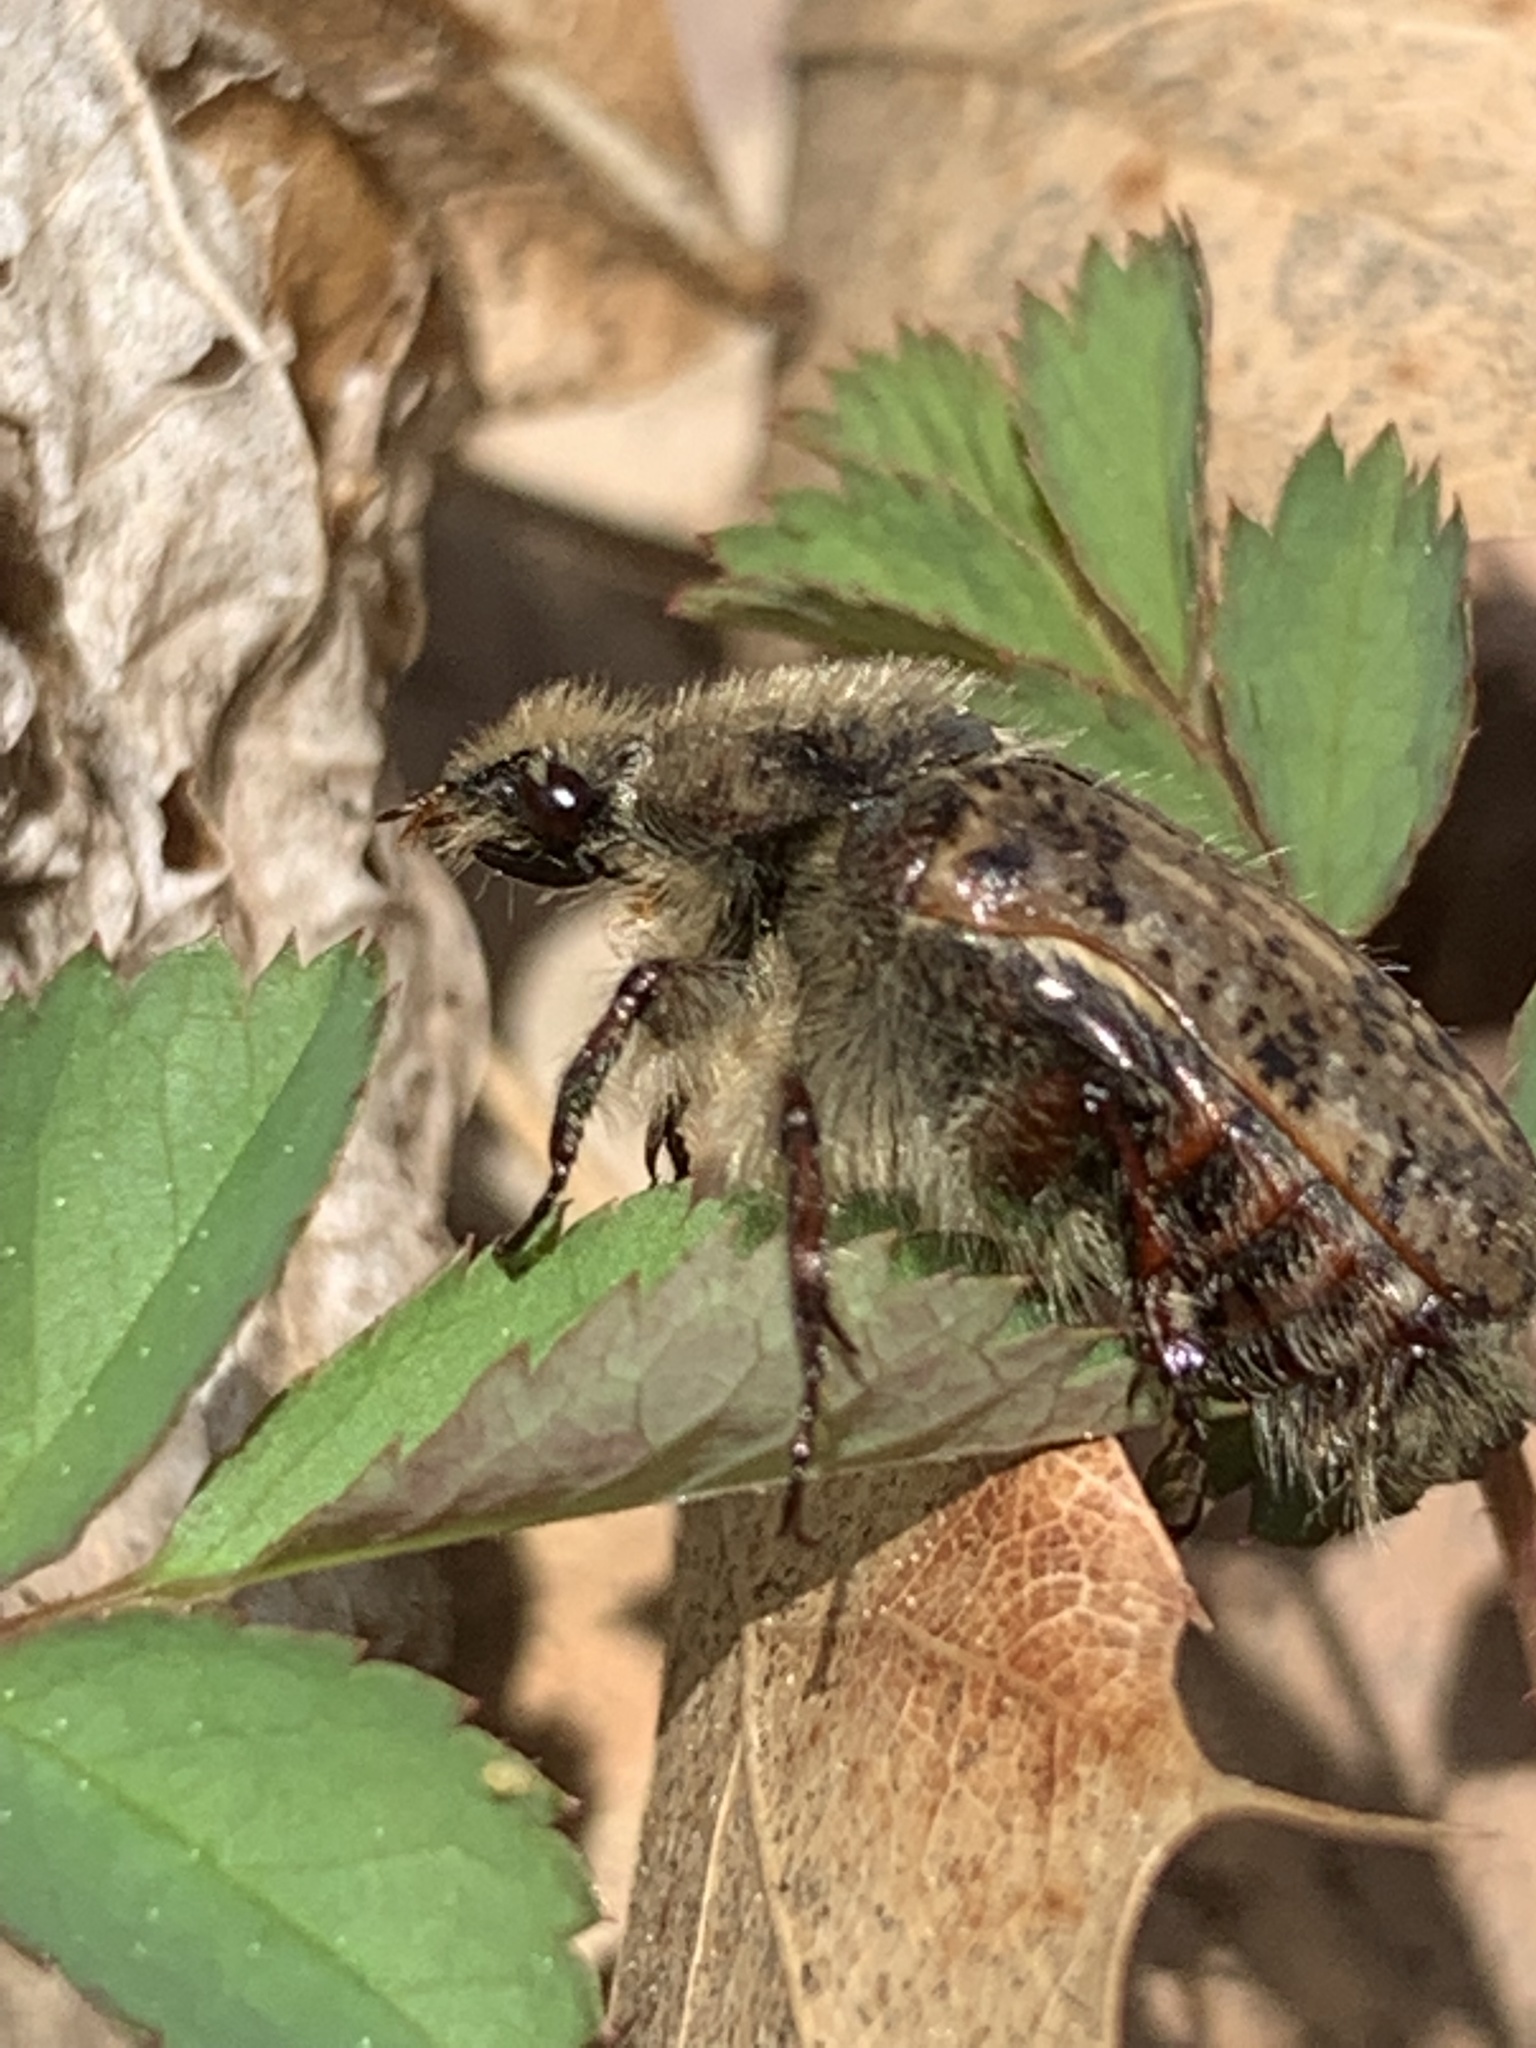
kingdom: Animalia
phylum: Arthropoda
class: Insecta
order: Coleoptera
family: Scarabaeidae
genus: Euphoria
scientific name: Euphoria inda
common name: Bumble flower beetle
